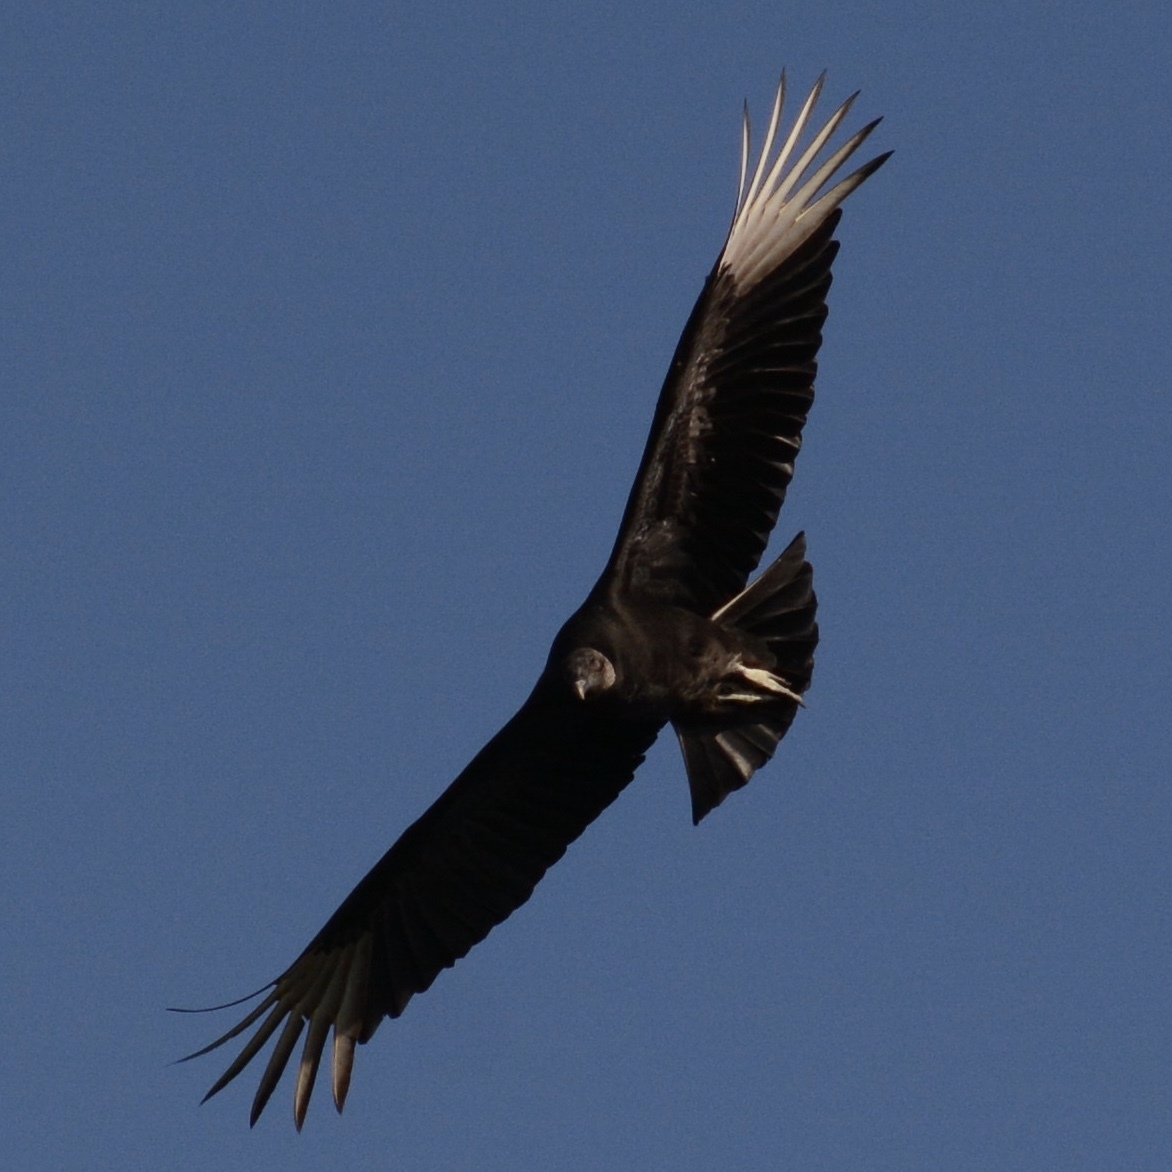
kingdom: Animalia
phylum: Chordata
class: Aves
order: Accipitriformes
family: Cathartidae
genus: Coragyps
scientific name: Coragyps atratus
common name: Black vulture
